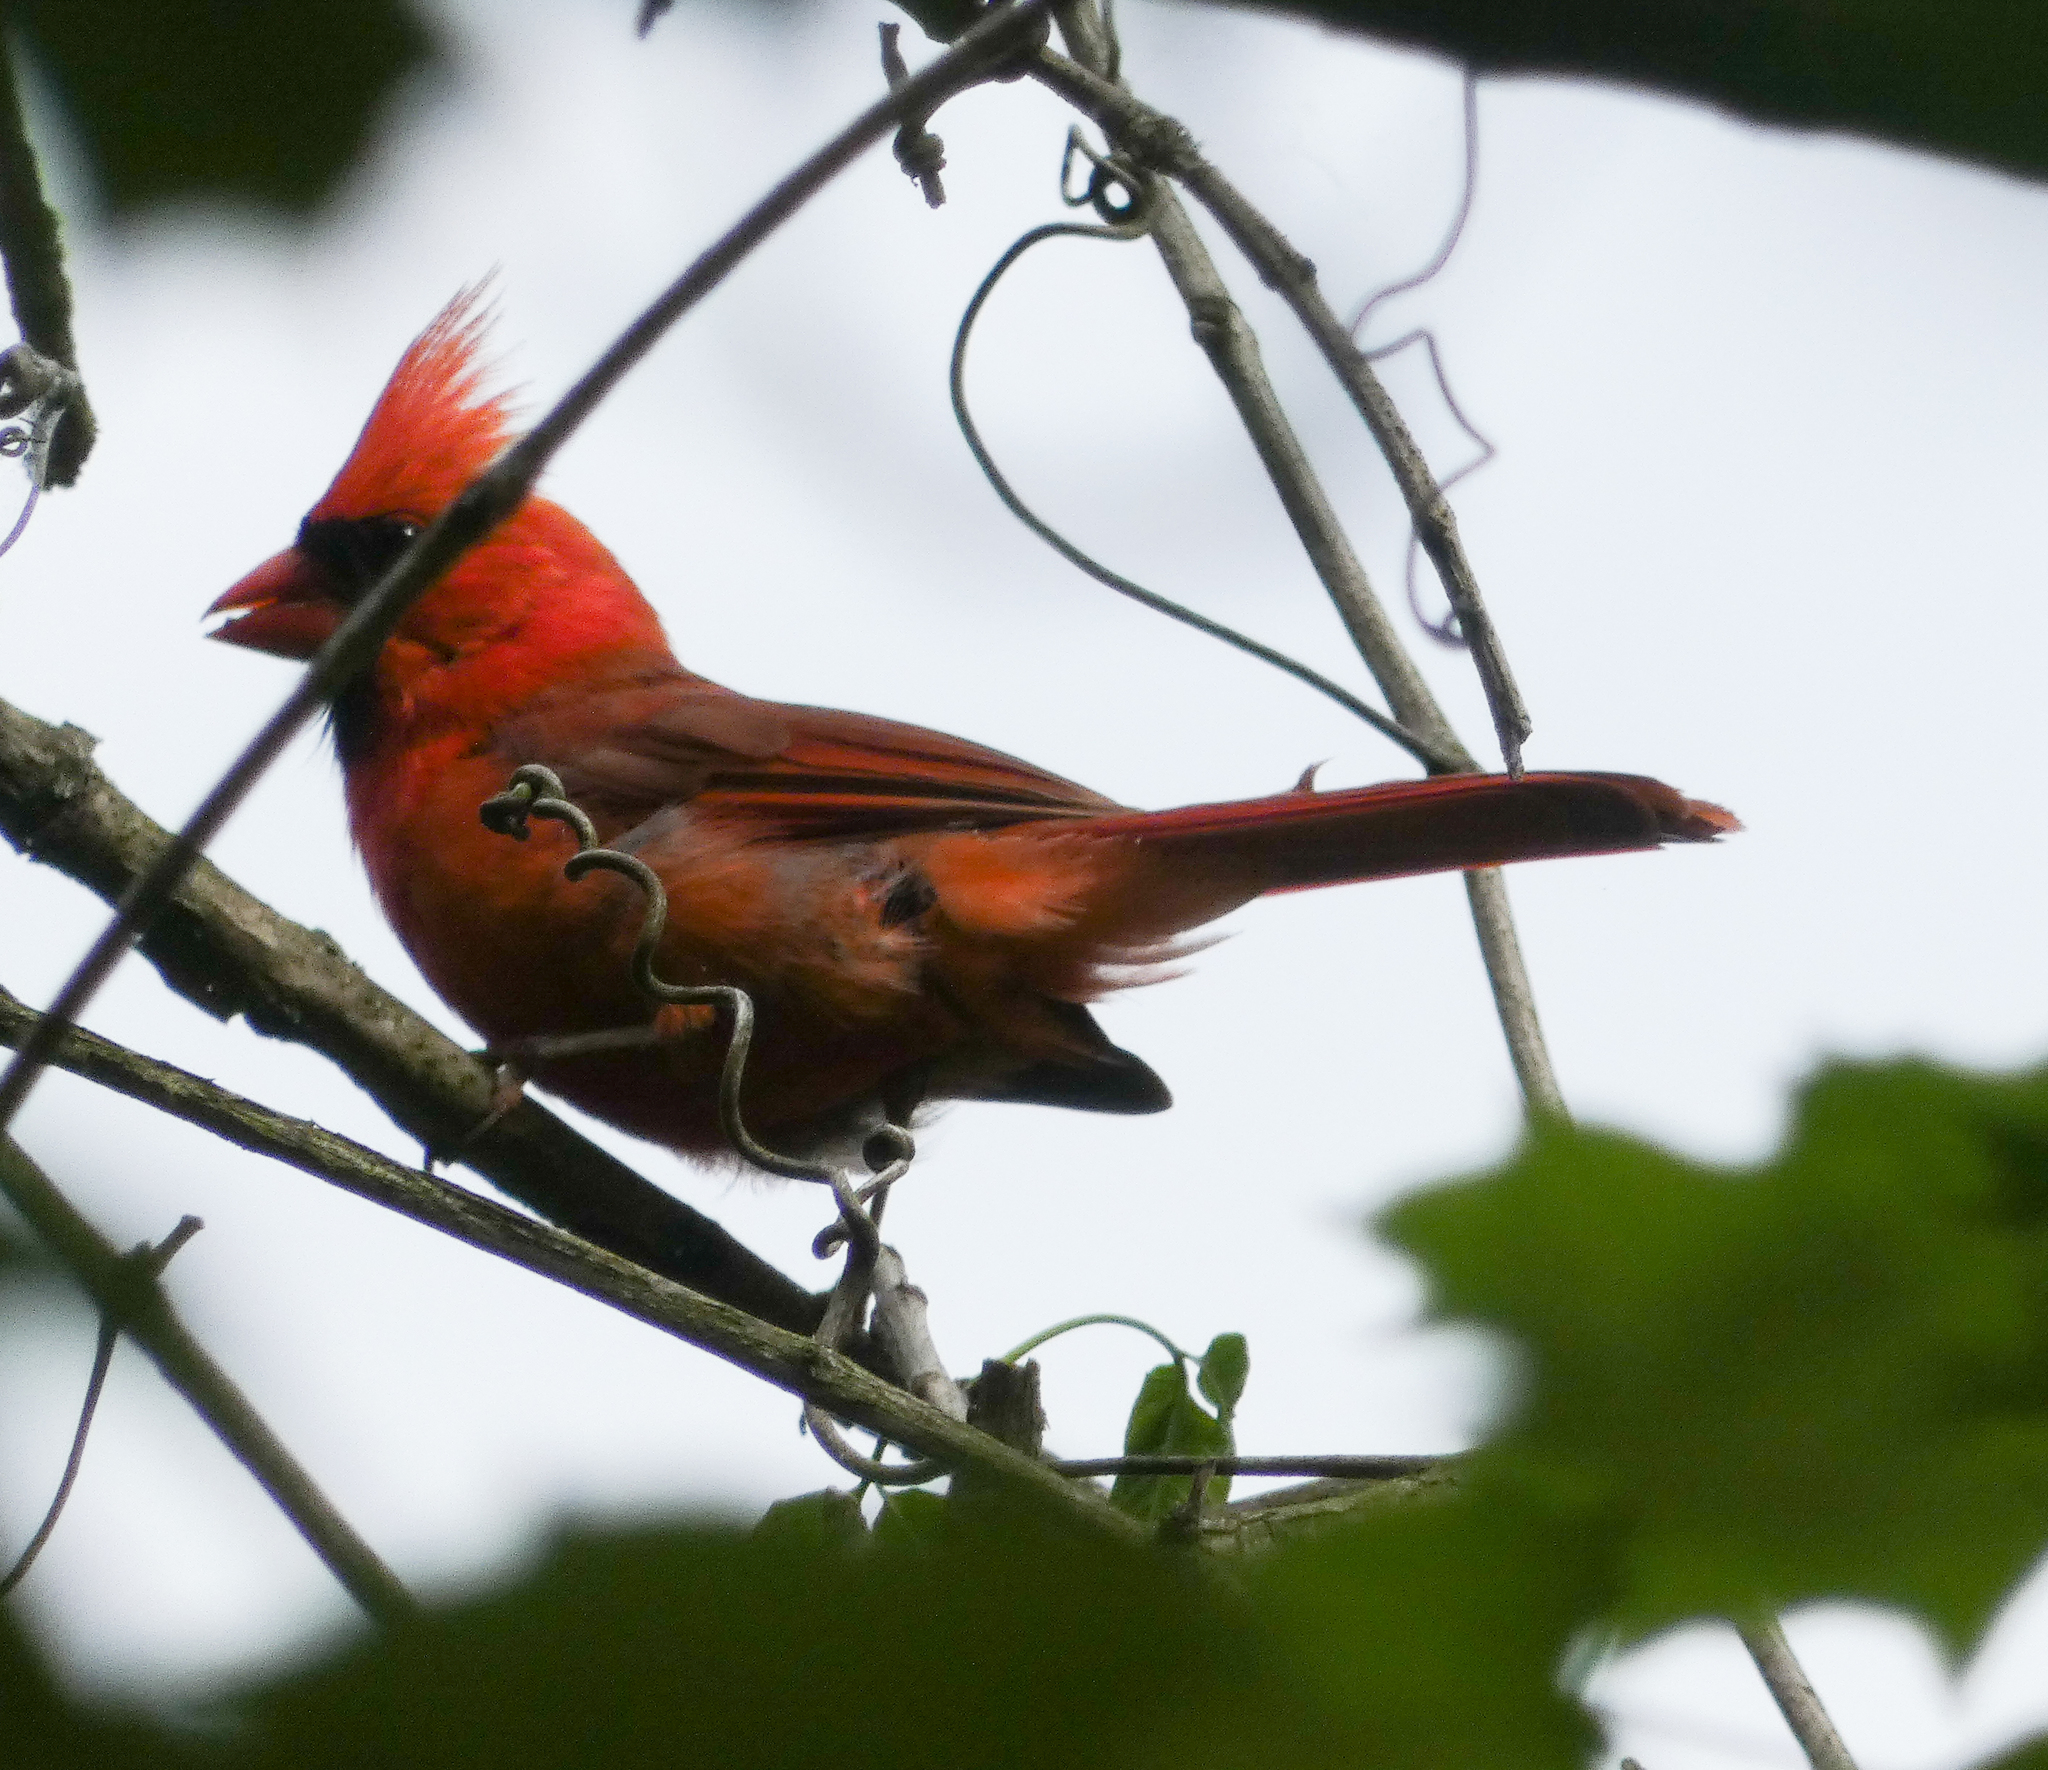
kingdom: Animalia
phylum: Chordata
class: Aves
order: Passeriformes
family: Cardinalidae
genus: Cardinalis
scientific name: Cardinalis cardinalis
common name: Northern cardinal
